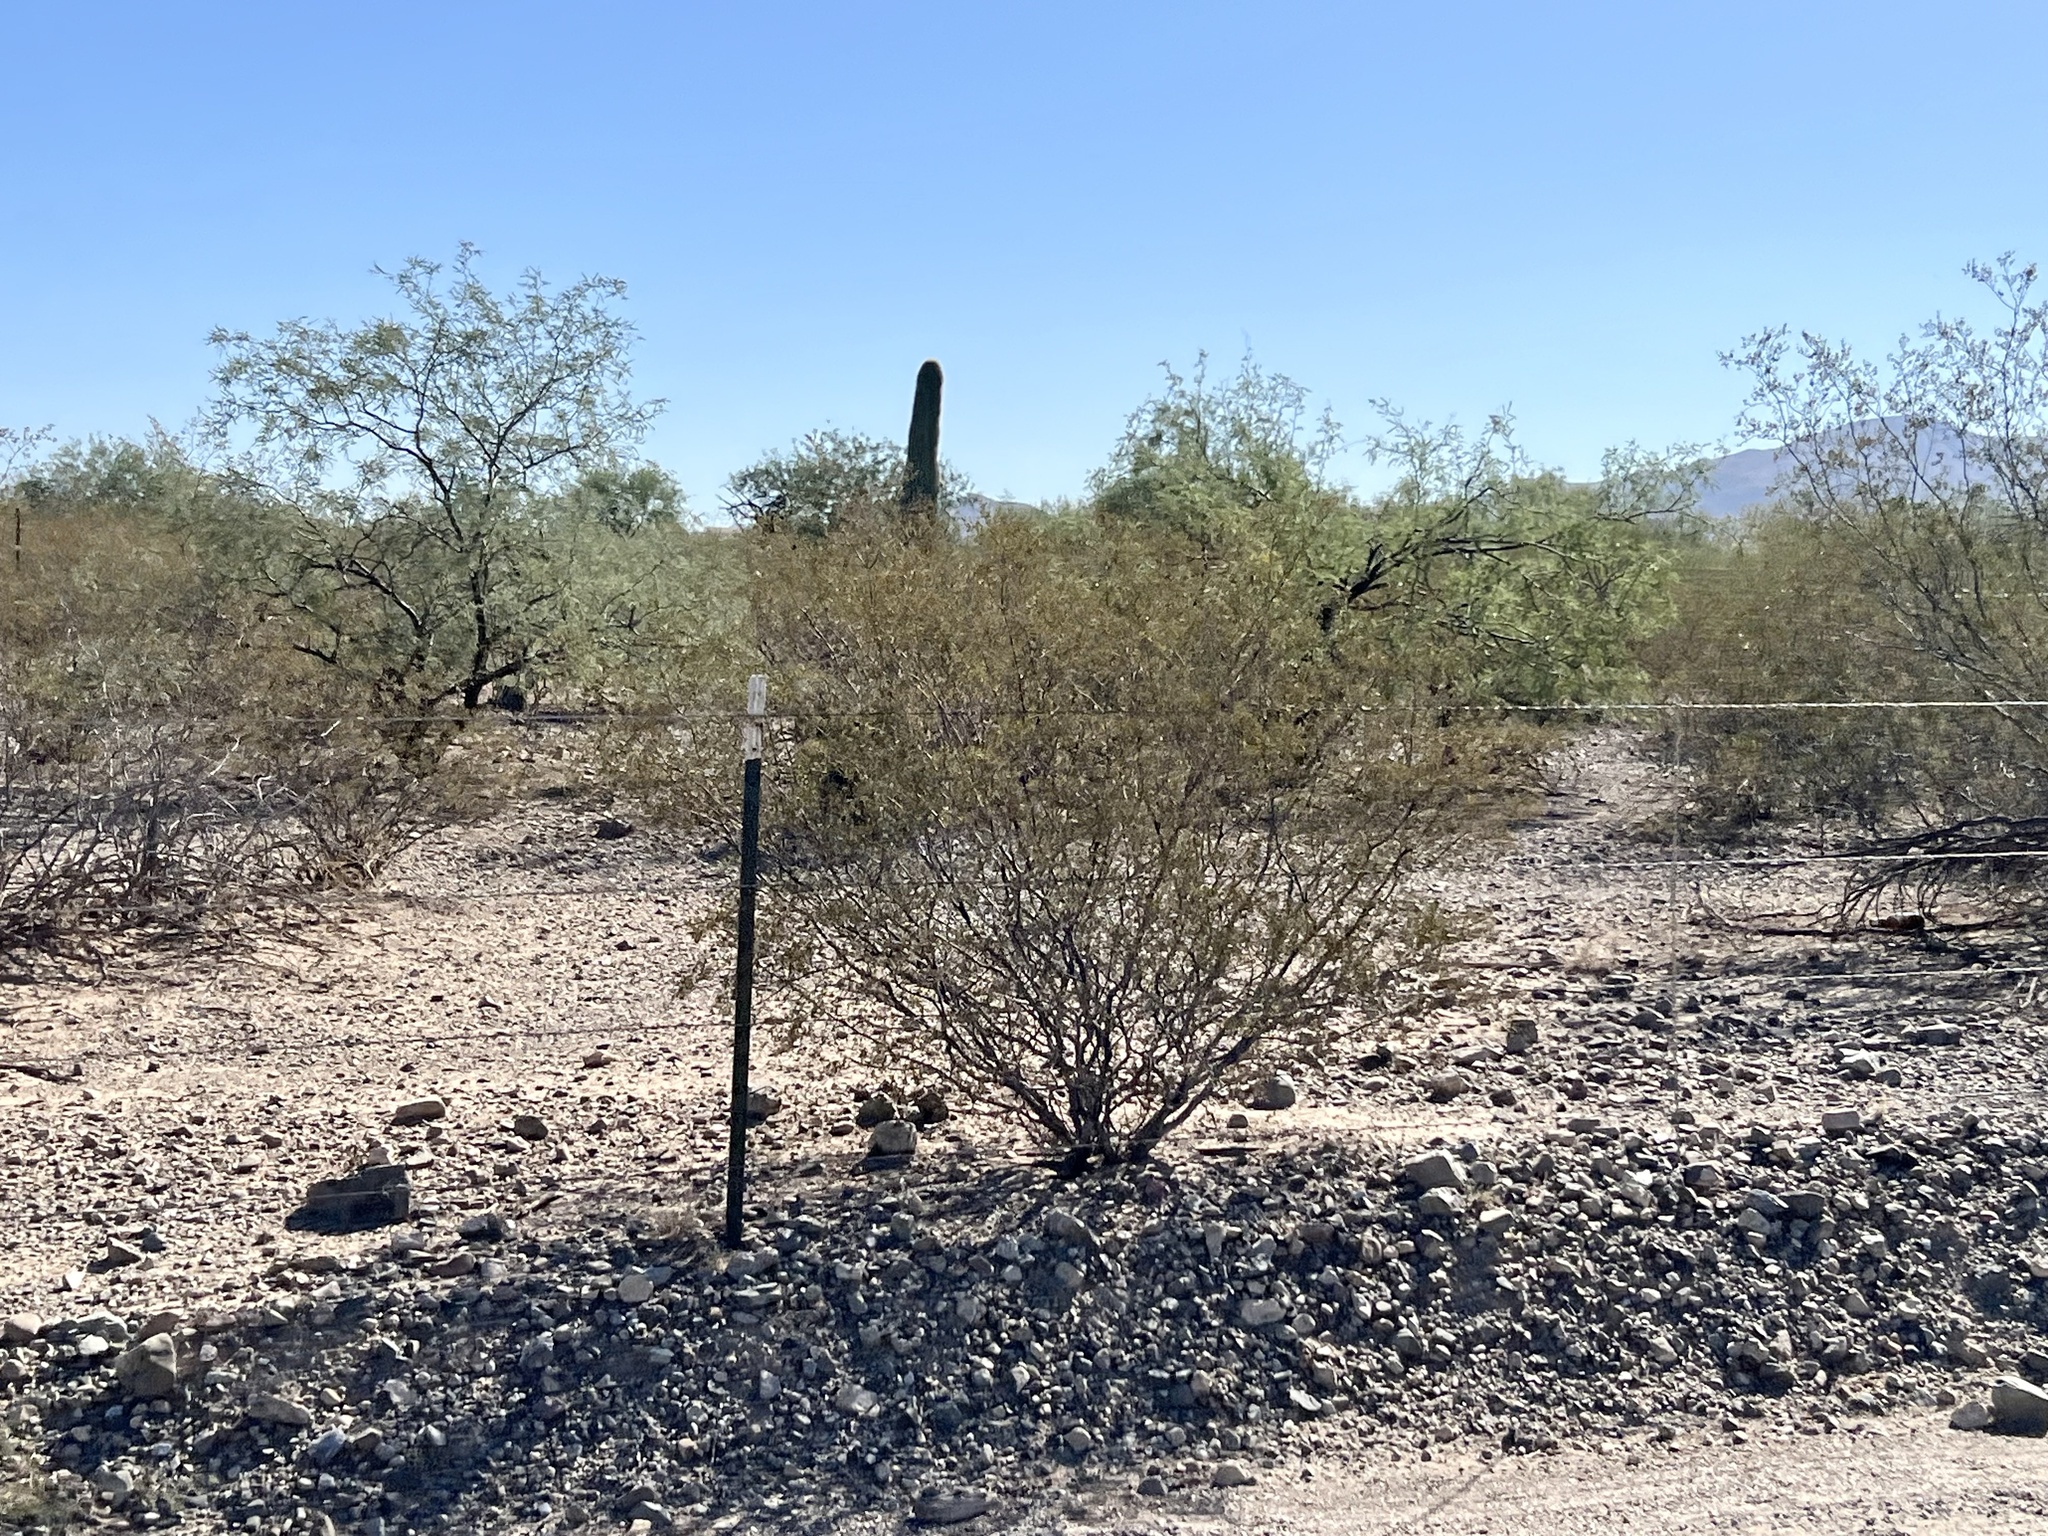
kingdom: Plantae
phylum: Tracheophyta
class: Magnoliopsida
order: Zygophyllales
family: Zygophyllaceae
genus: Larrea
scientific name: Larrea tridentata
